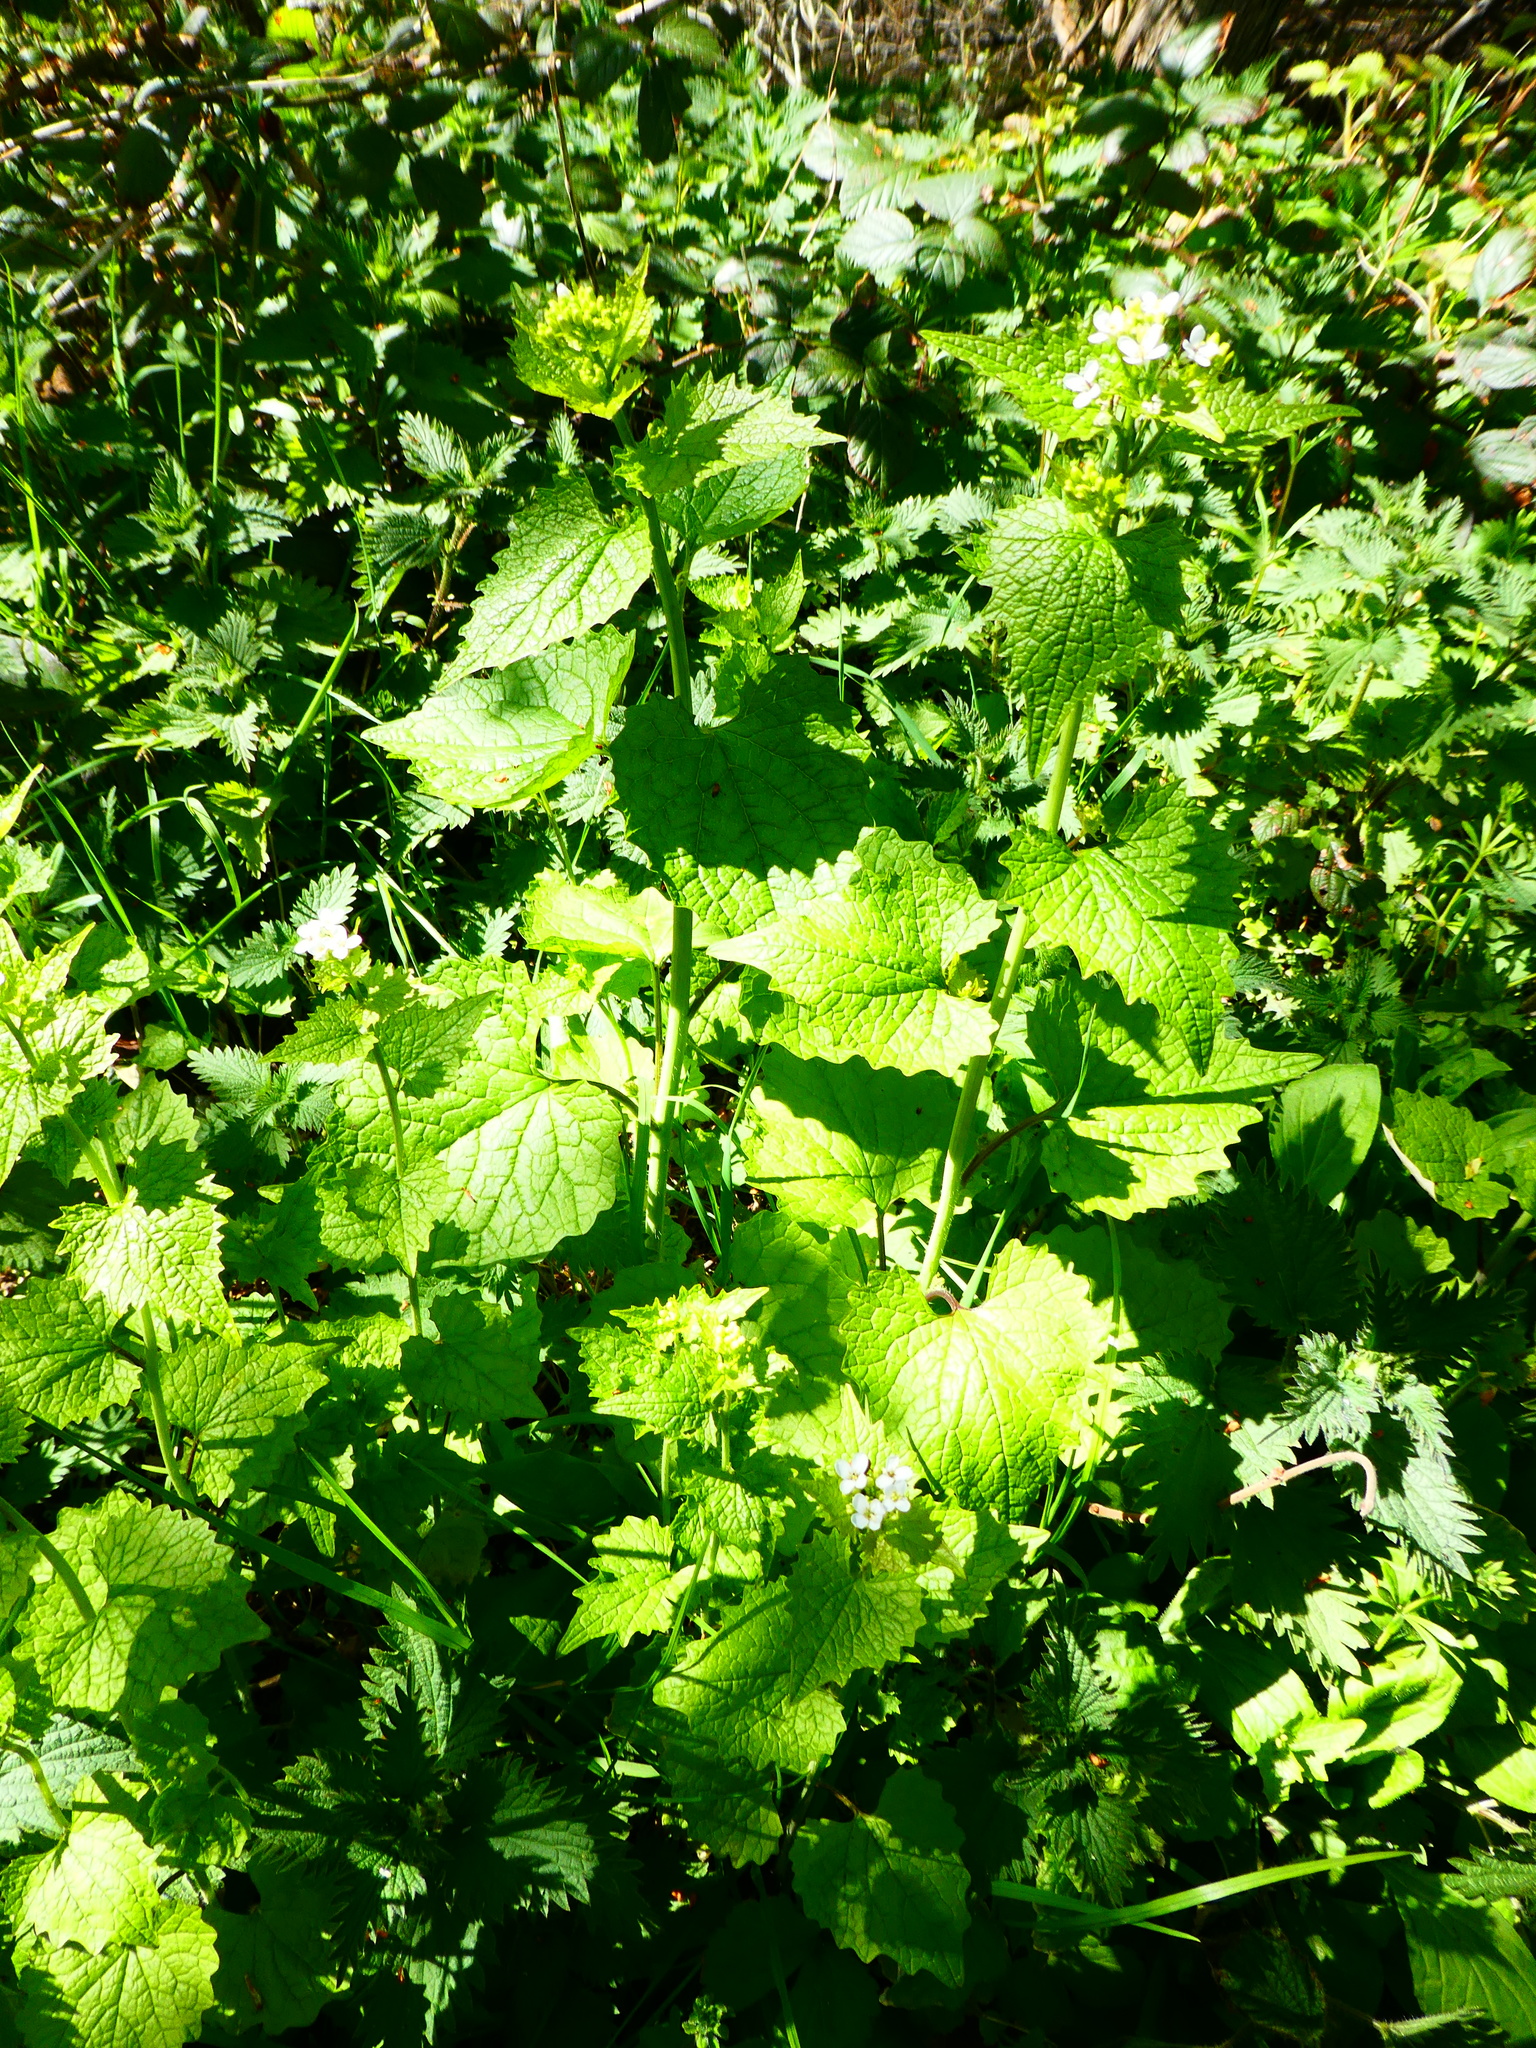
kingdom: Plantae
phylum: Tracheophyta
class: Magnoliopsida
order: Brassicales
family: Brassicaceae
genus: Alliaria
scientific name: Alliaria petiolata
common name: Garlic mustard
